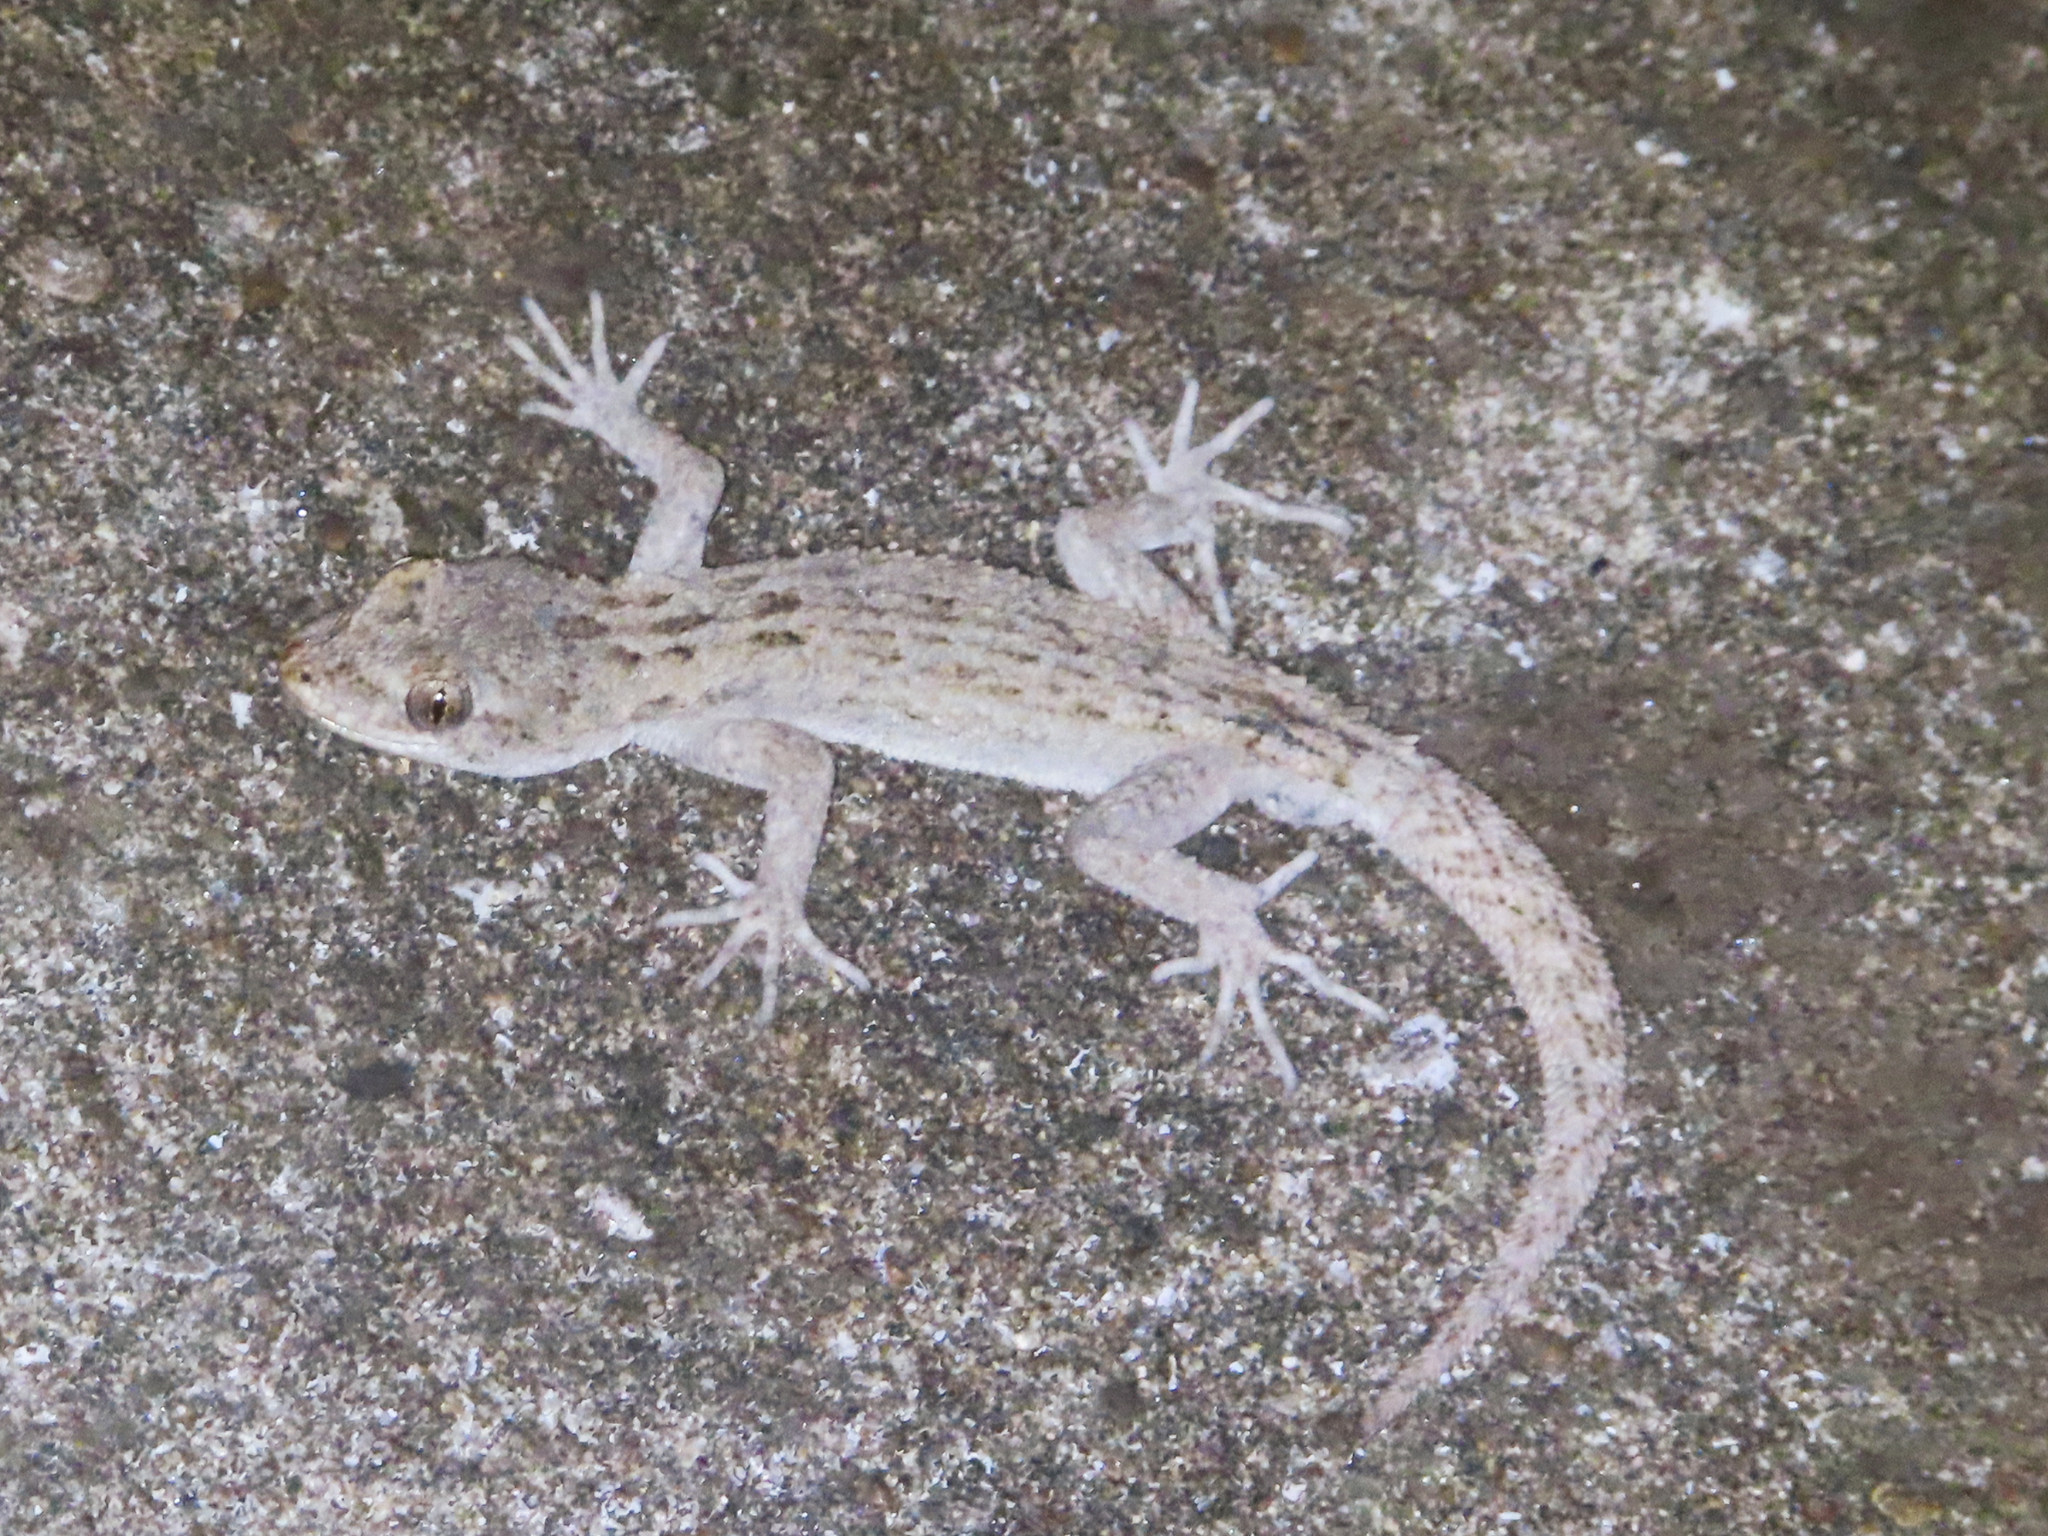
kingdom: Animalia
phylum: Chordata
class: Squamata
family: Gekkonidae
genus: Mediodactylus
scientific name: Mediodactylus danilewskii
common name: Bulgarian bent-toed gecko
